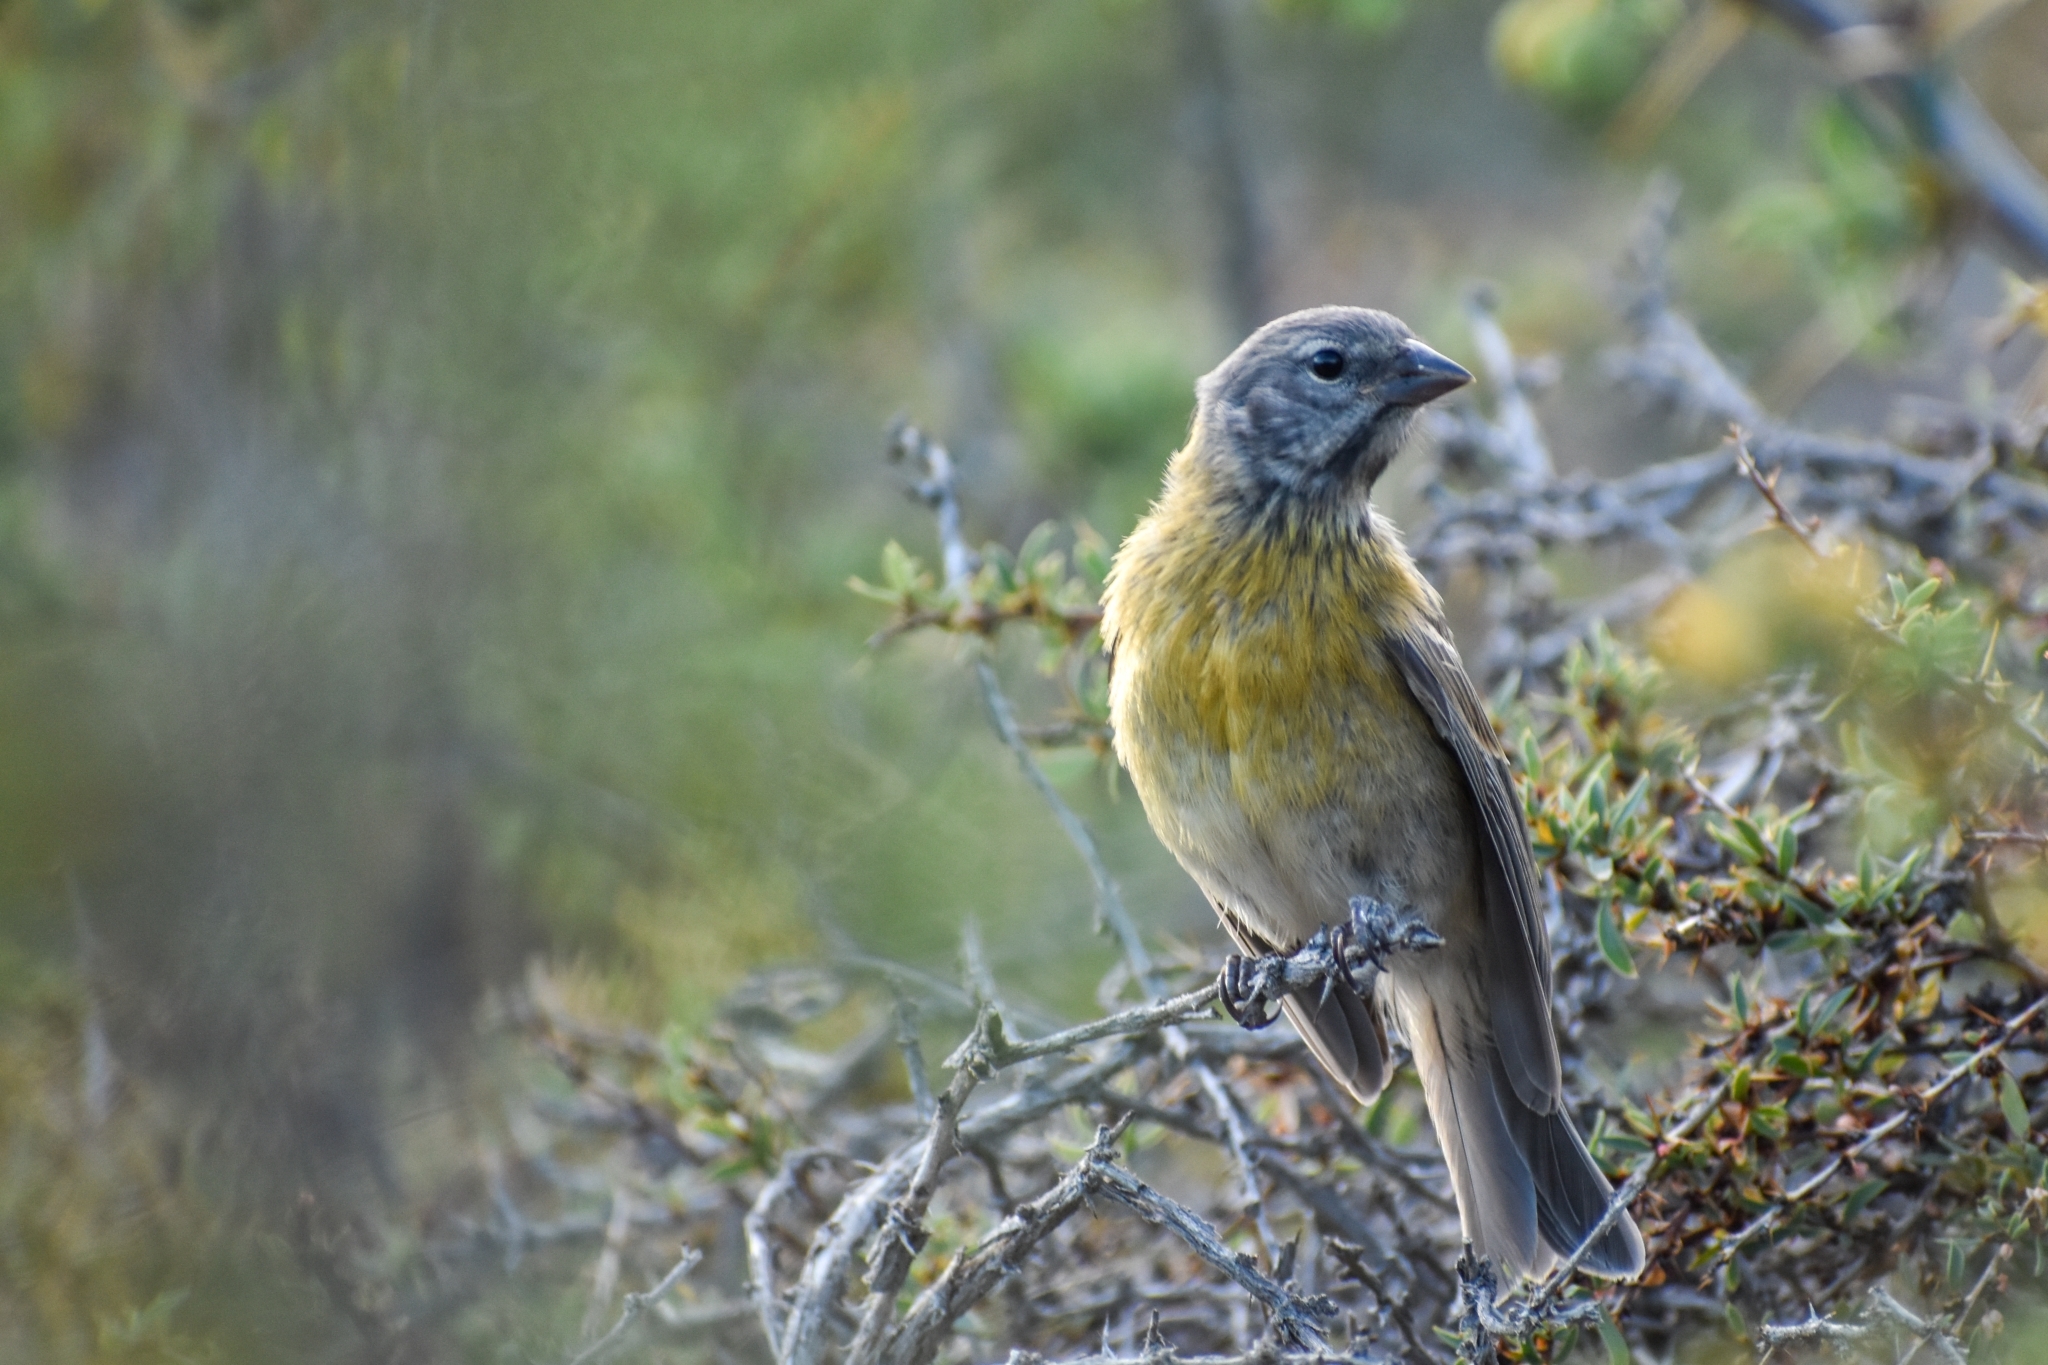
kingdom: Animalia
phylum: Chordata
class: Aves
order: Passeriformes
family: Thraupidae
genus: Phrygilus
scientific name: Phrygilus gayi
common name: Grey-hooded sierra finch
